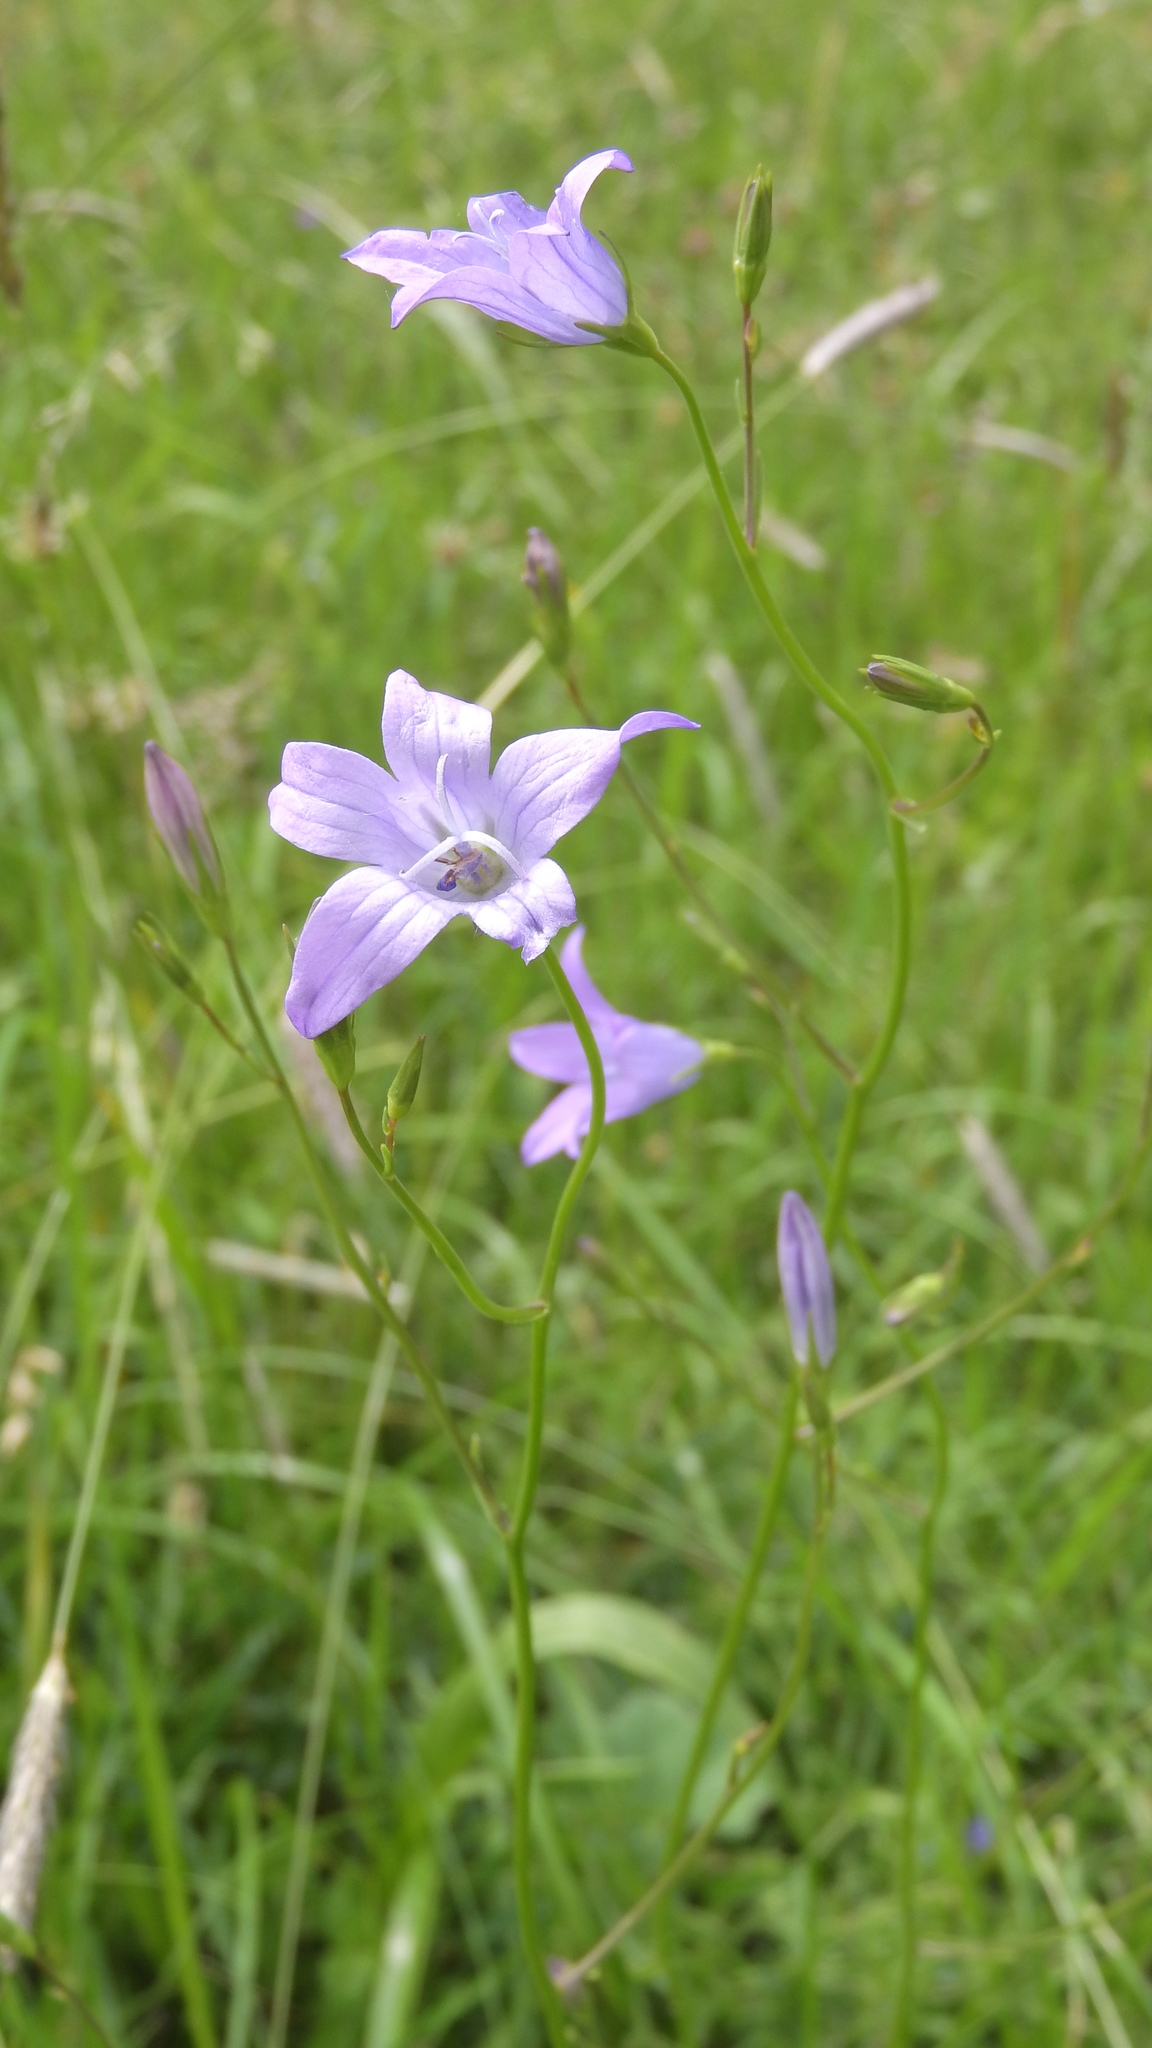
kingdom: Plantae
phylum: Tracheophyta
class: Magnoliopsida
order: Asterales
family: Campanulaceae
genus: Campanula
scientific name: Campanula patula
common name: Spreading bellflower
